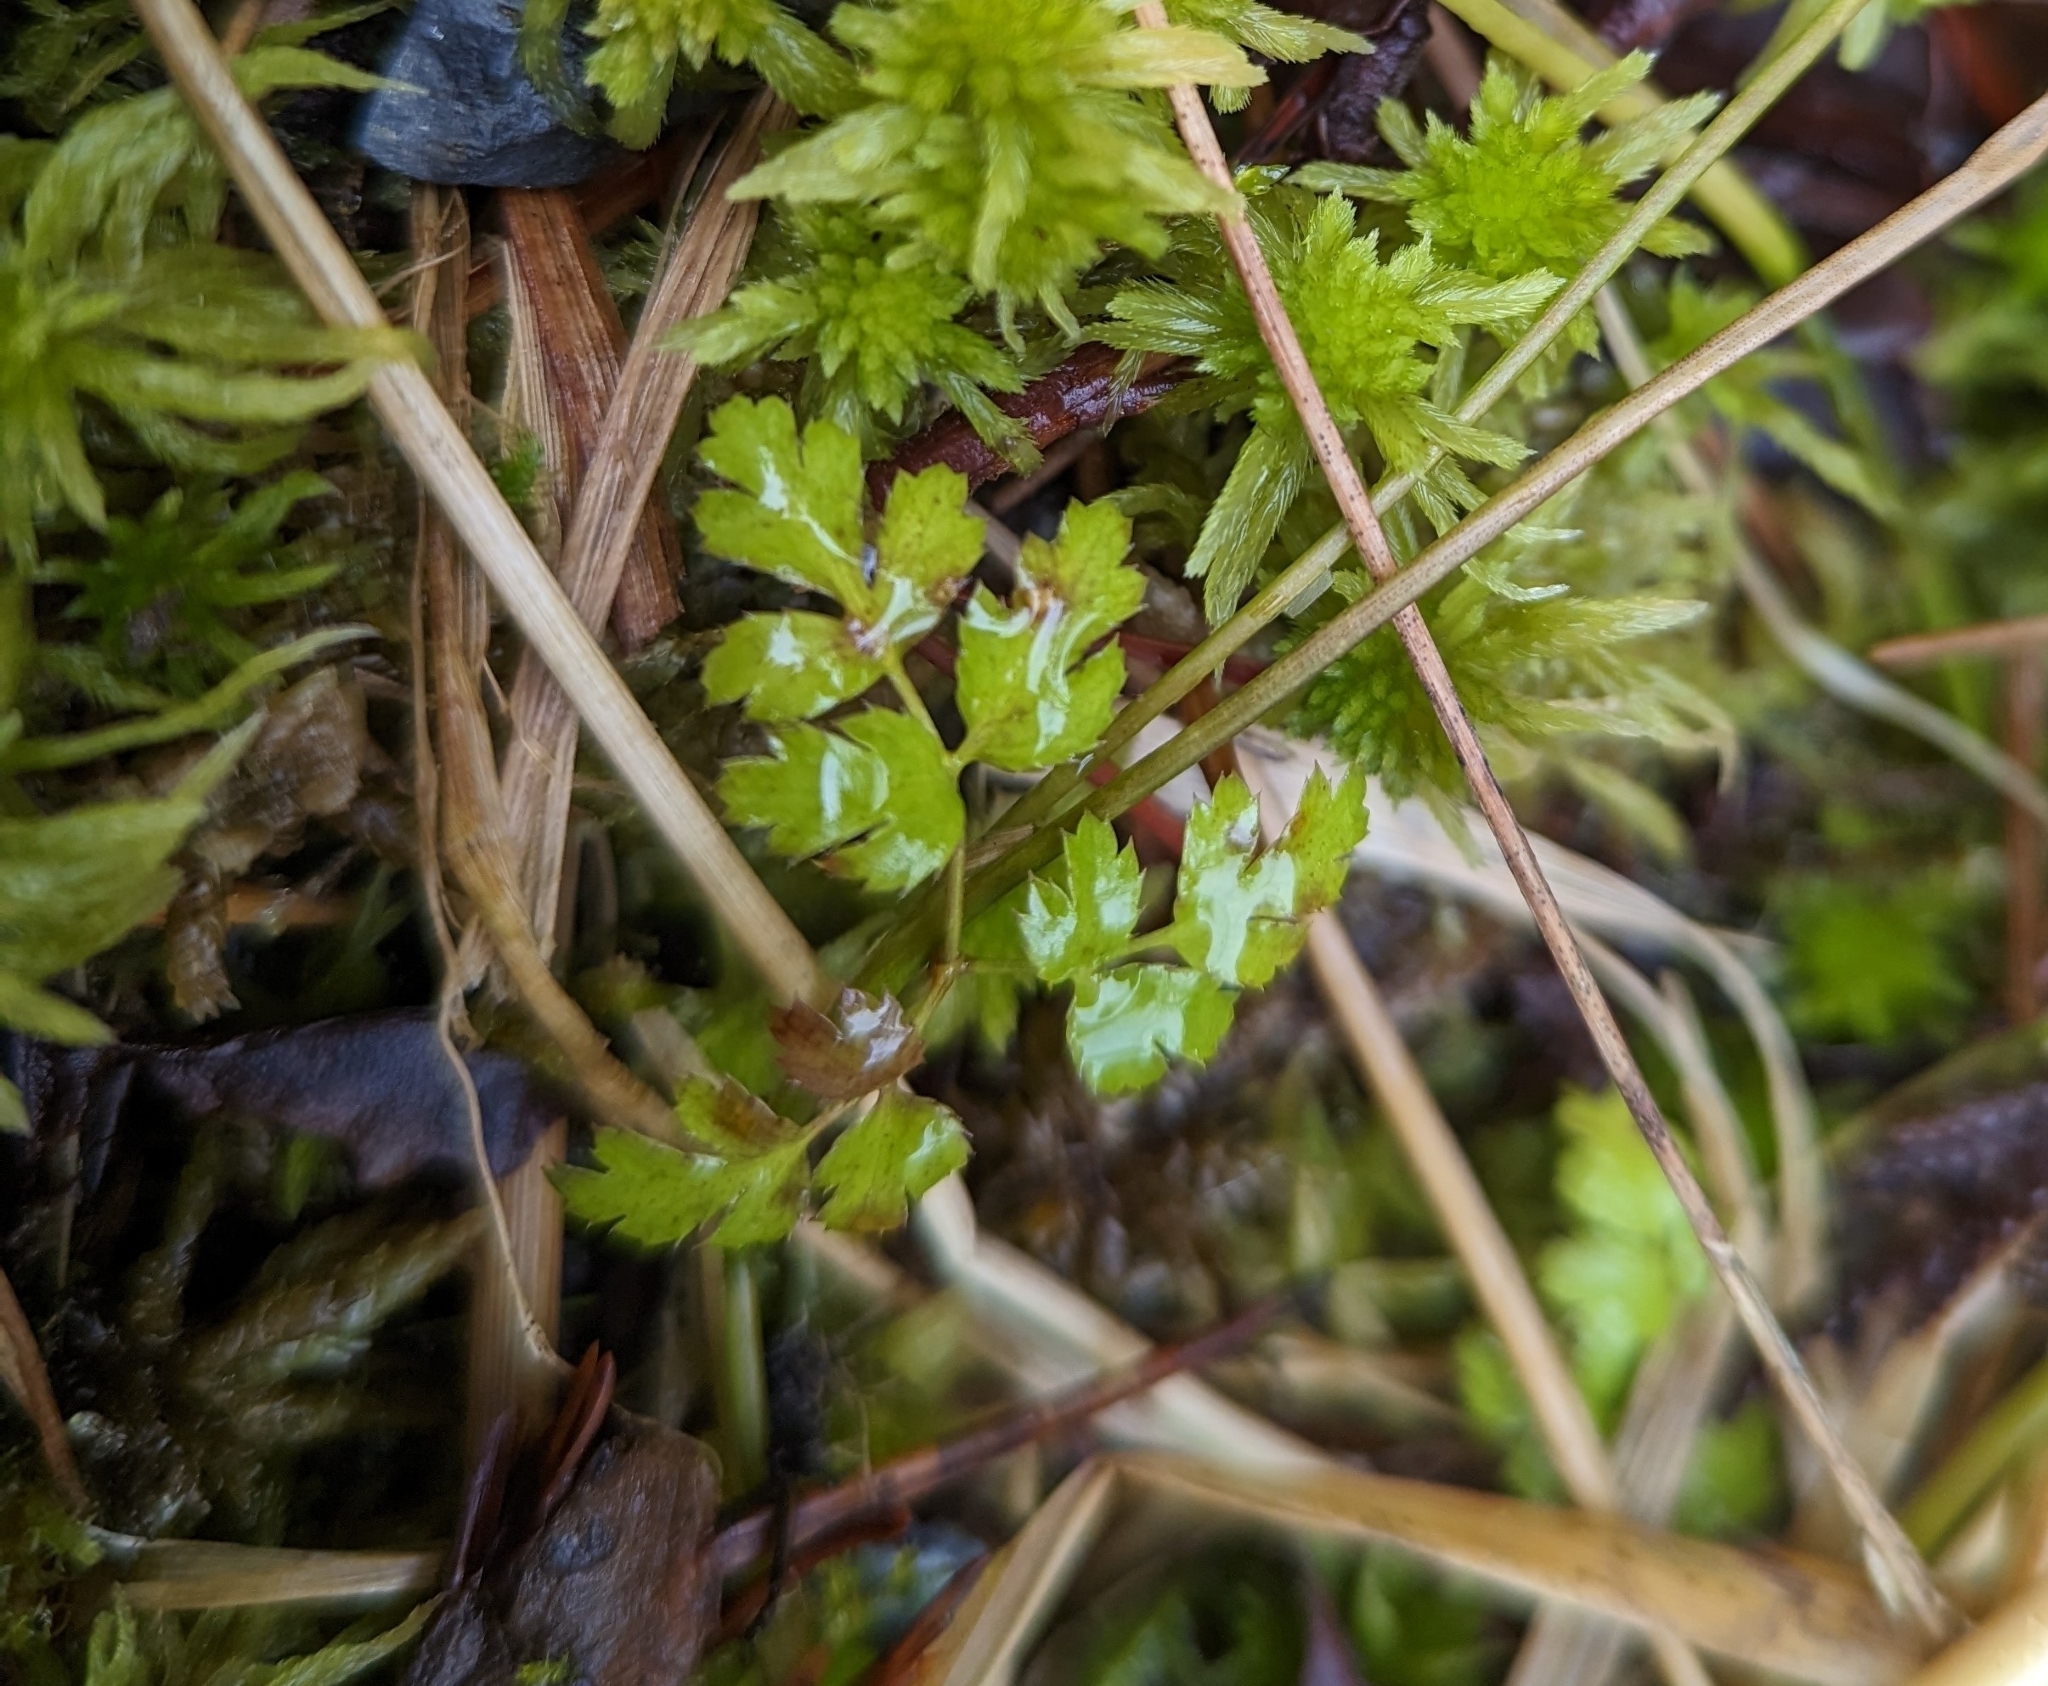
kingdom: Plantae
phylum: Tracheophyta
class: Magnoliopsida
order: Ranunculales
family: Ranunculaceae
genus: Coptis
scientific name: Coptis aspleniifolia
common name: Fern-leaved goldthread
